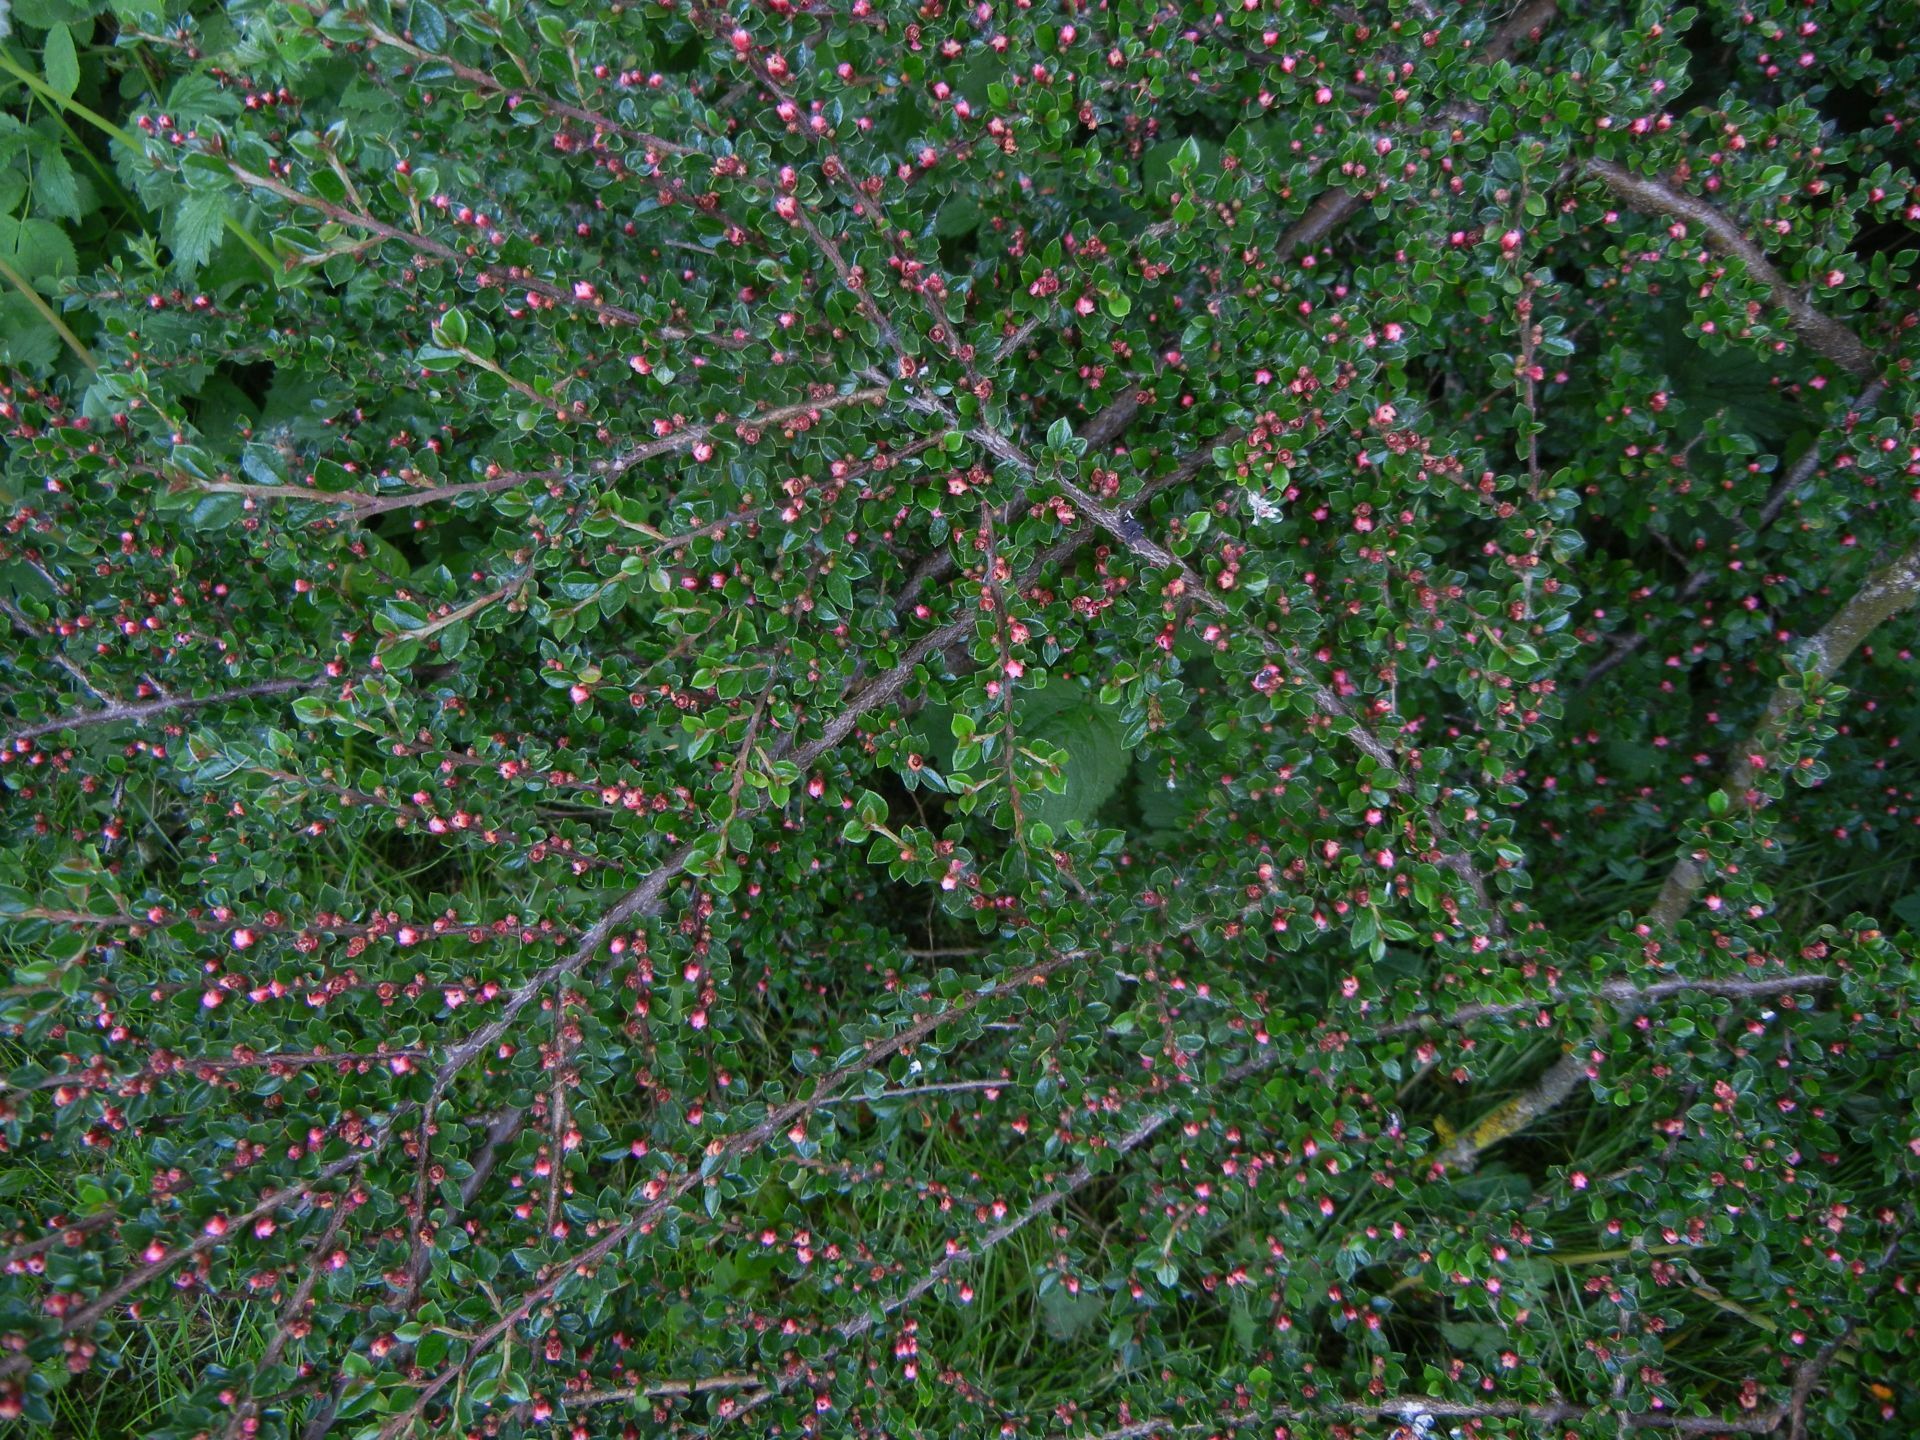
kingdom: Plantae
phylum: Tracheophyta
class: Magnoliopsida
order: Rosales
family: Rosaceae
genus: Cotoneaster
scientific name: Cotoneaster horizontalis
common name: Wall cotoneaster
